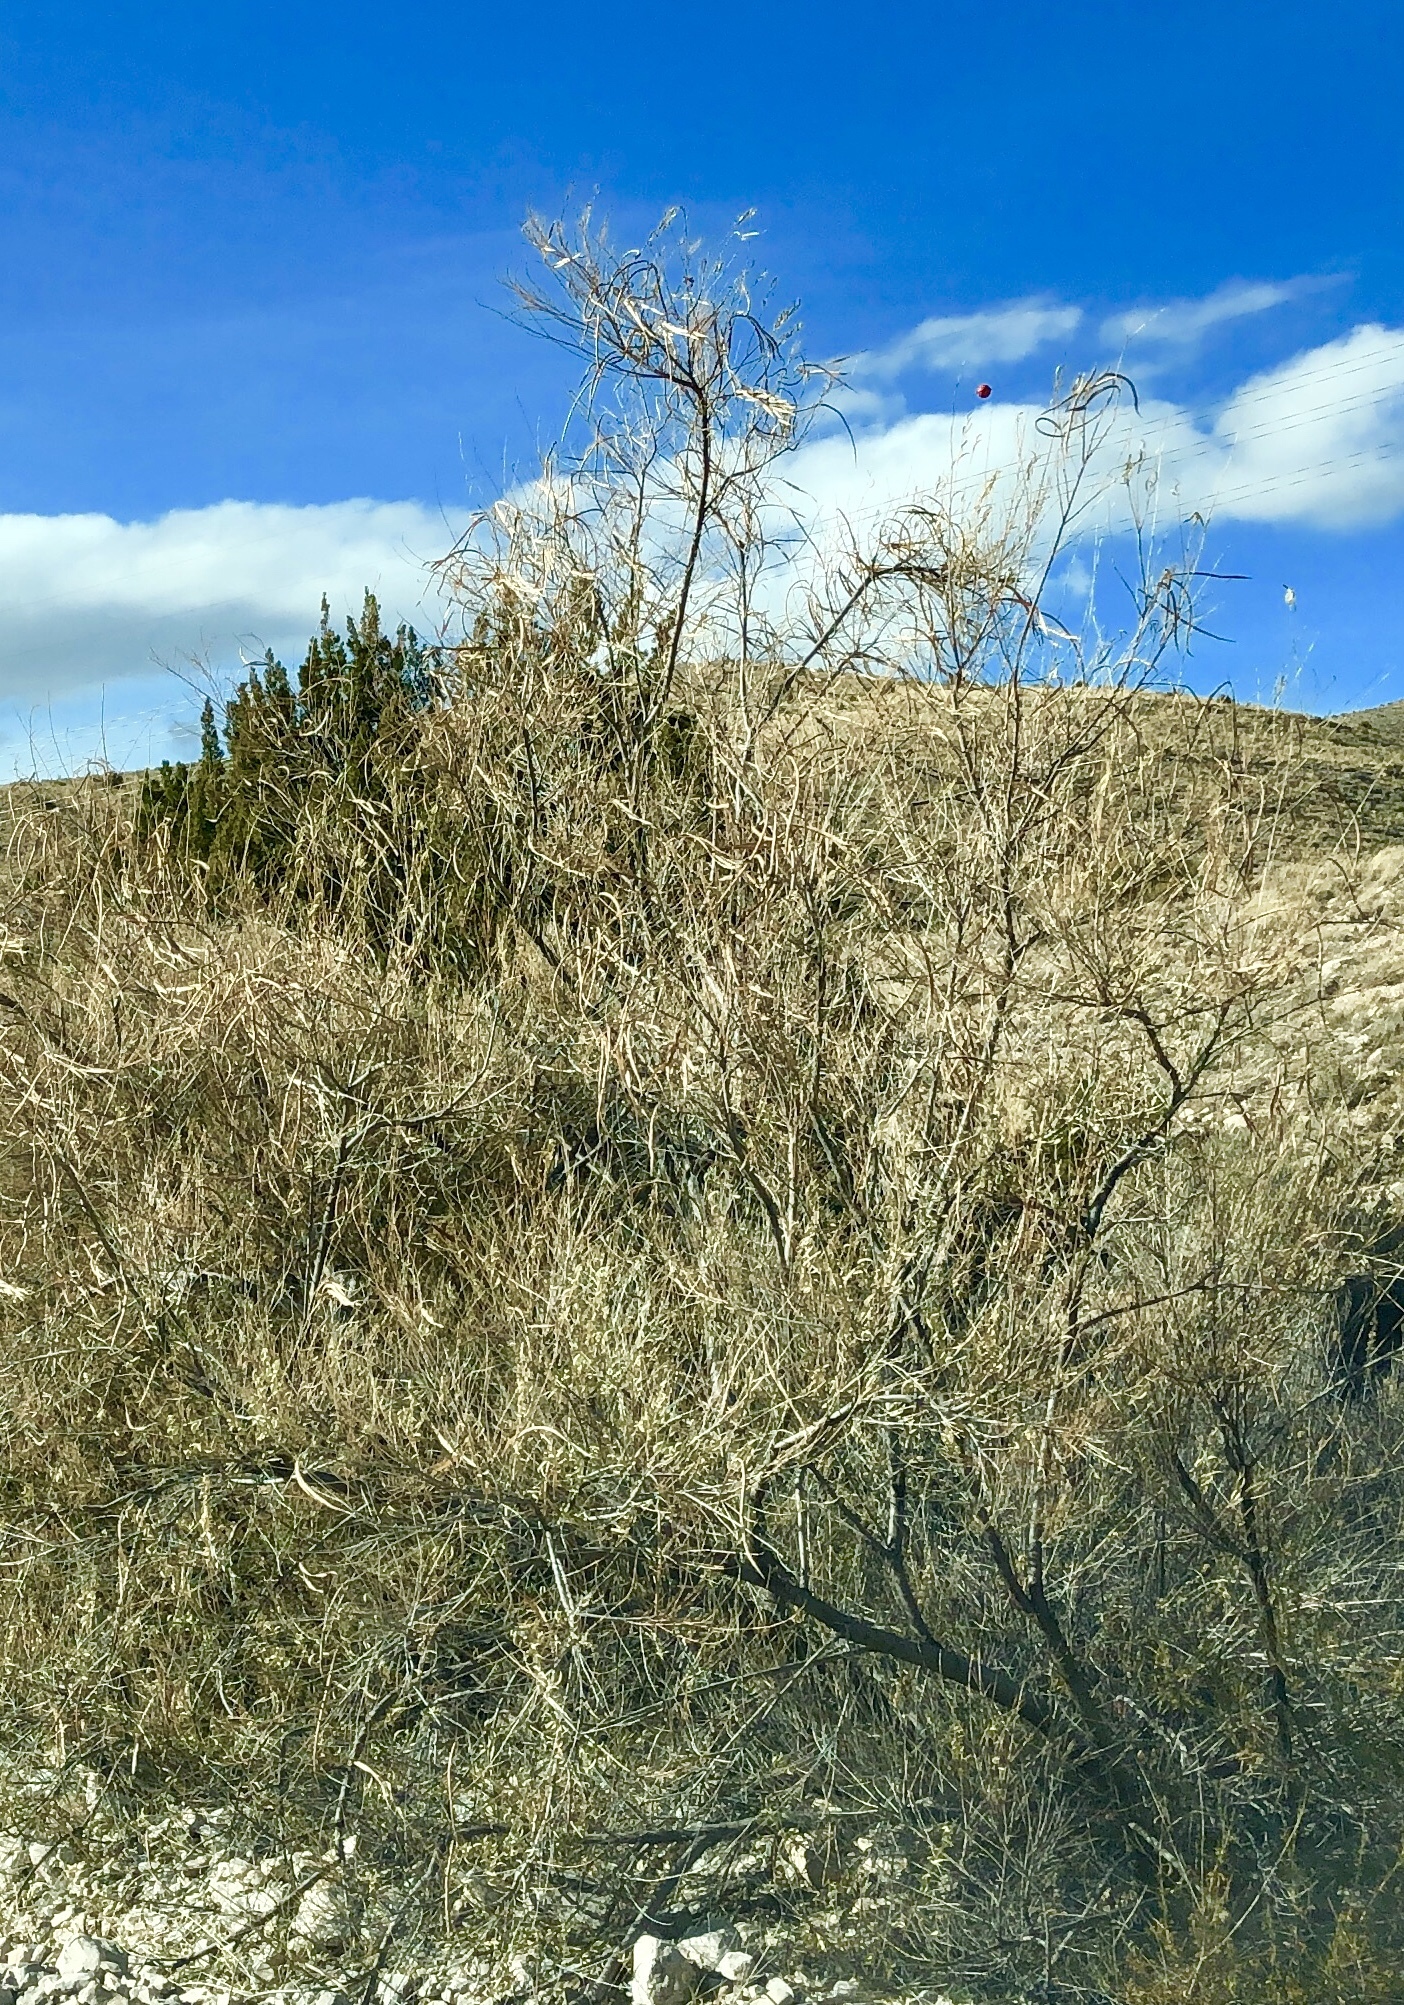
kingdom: Plantae
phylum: Tracheophyta
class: Magnoliopsida
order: Lamiales
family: Bignoniaceae
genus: Chilopsis
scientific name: Chilopsis linearis
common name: Desert-willow
